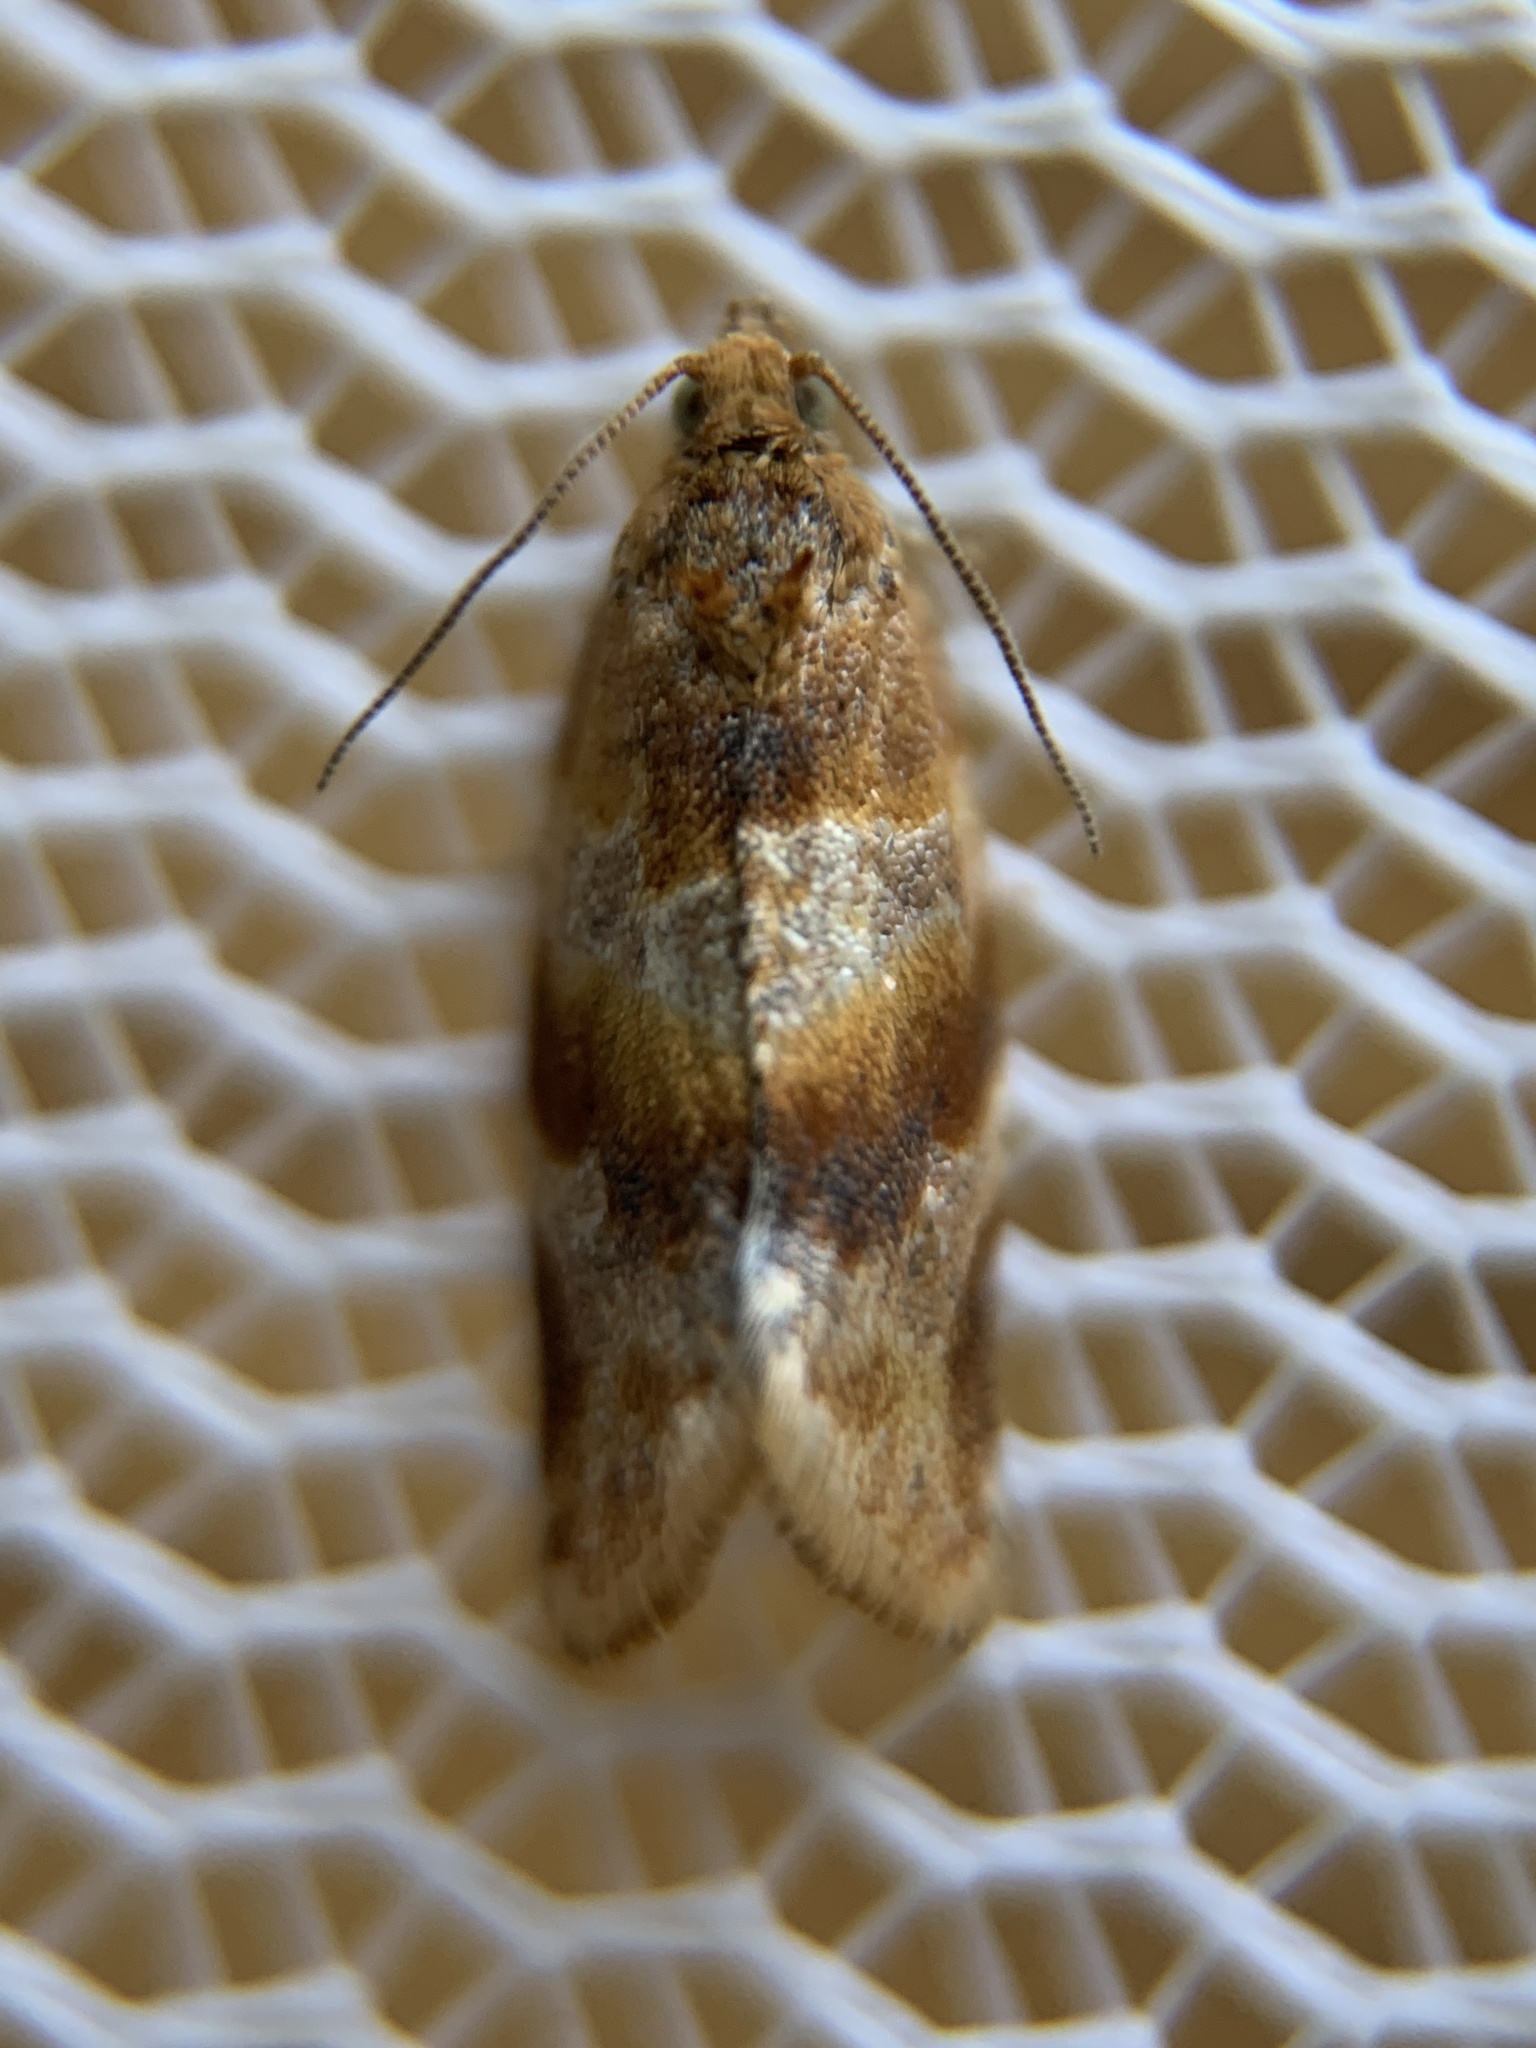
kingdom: Animalia
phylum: Arthropoda
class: Insecta
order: Lepidoptera
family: Tortricidae
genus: Argyrotaenia
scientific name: Argyrotaenia pinatubana
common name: Pine tube moth
